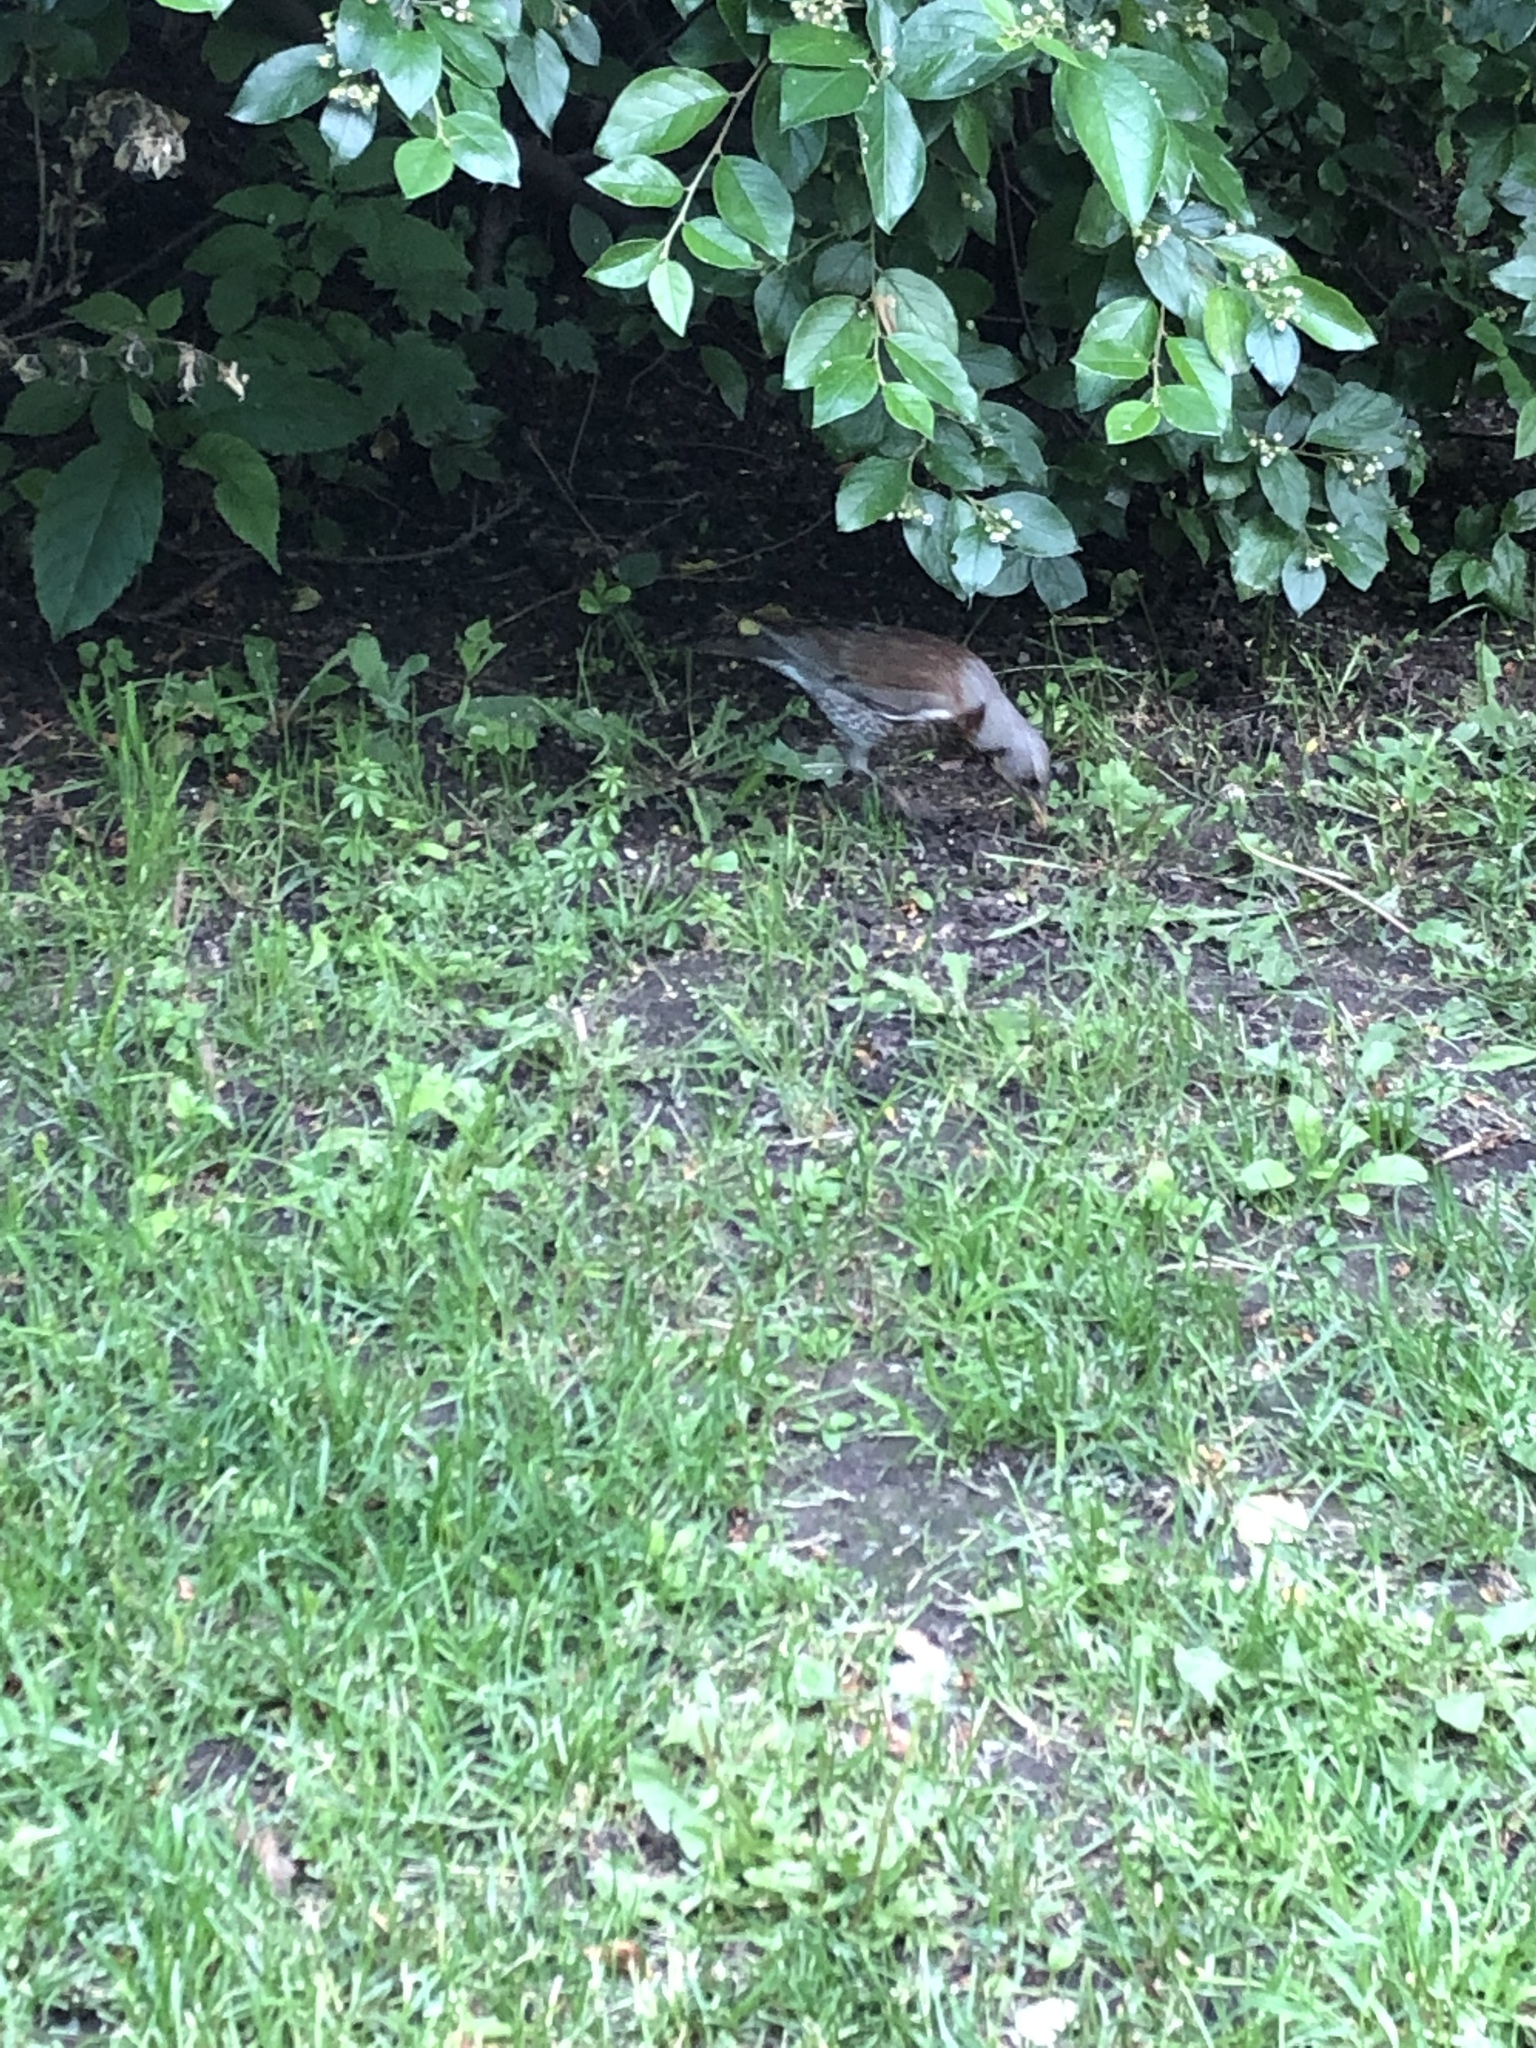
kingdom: Animalia
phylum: Chordata
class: Aves
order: Passeriformes
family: Turdidae
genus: Turdus
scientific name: Turdus pilaris
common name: Fieldfare
